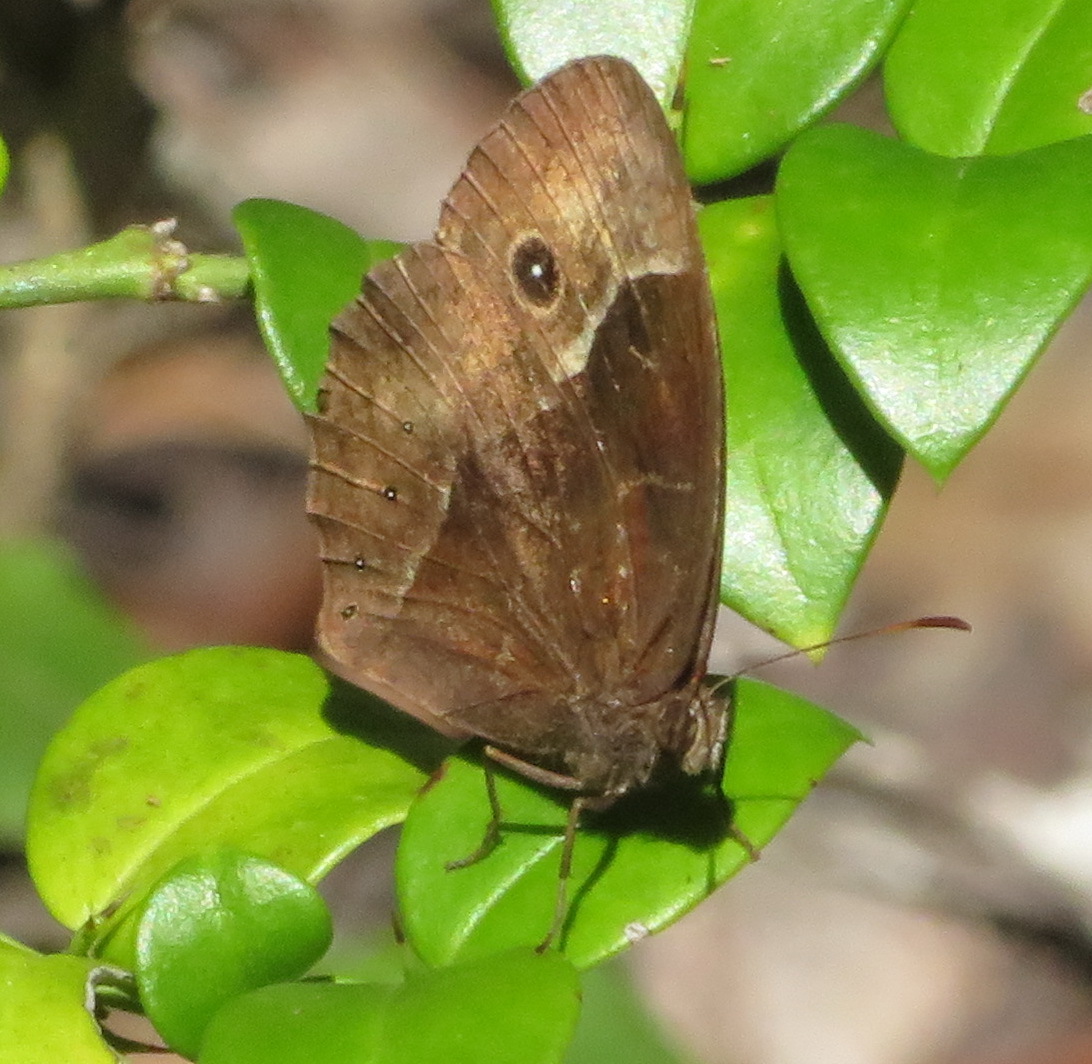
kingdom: Animalia
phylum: Arthropoda
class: Insecta
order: Lepidoptera
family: Nymphalidae
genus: Mycalesis
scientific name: Mycalesis rhacotis
